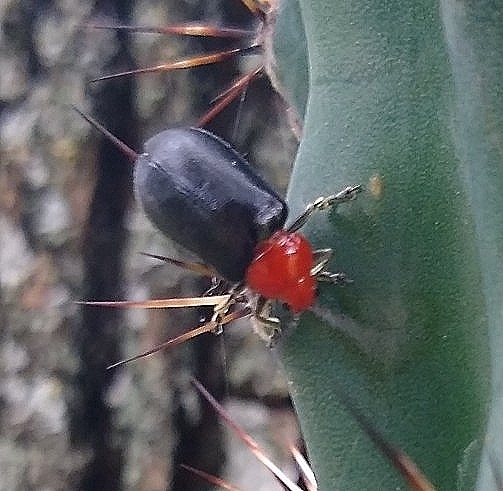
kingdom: Animalia
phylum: Arthropoda
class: Insecta
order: Coleoptera
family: Chrysomelidae
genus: Cacoscelis
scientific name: Cacoscelis
